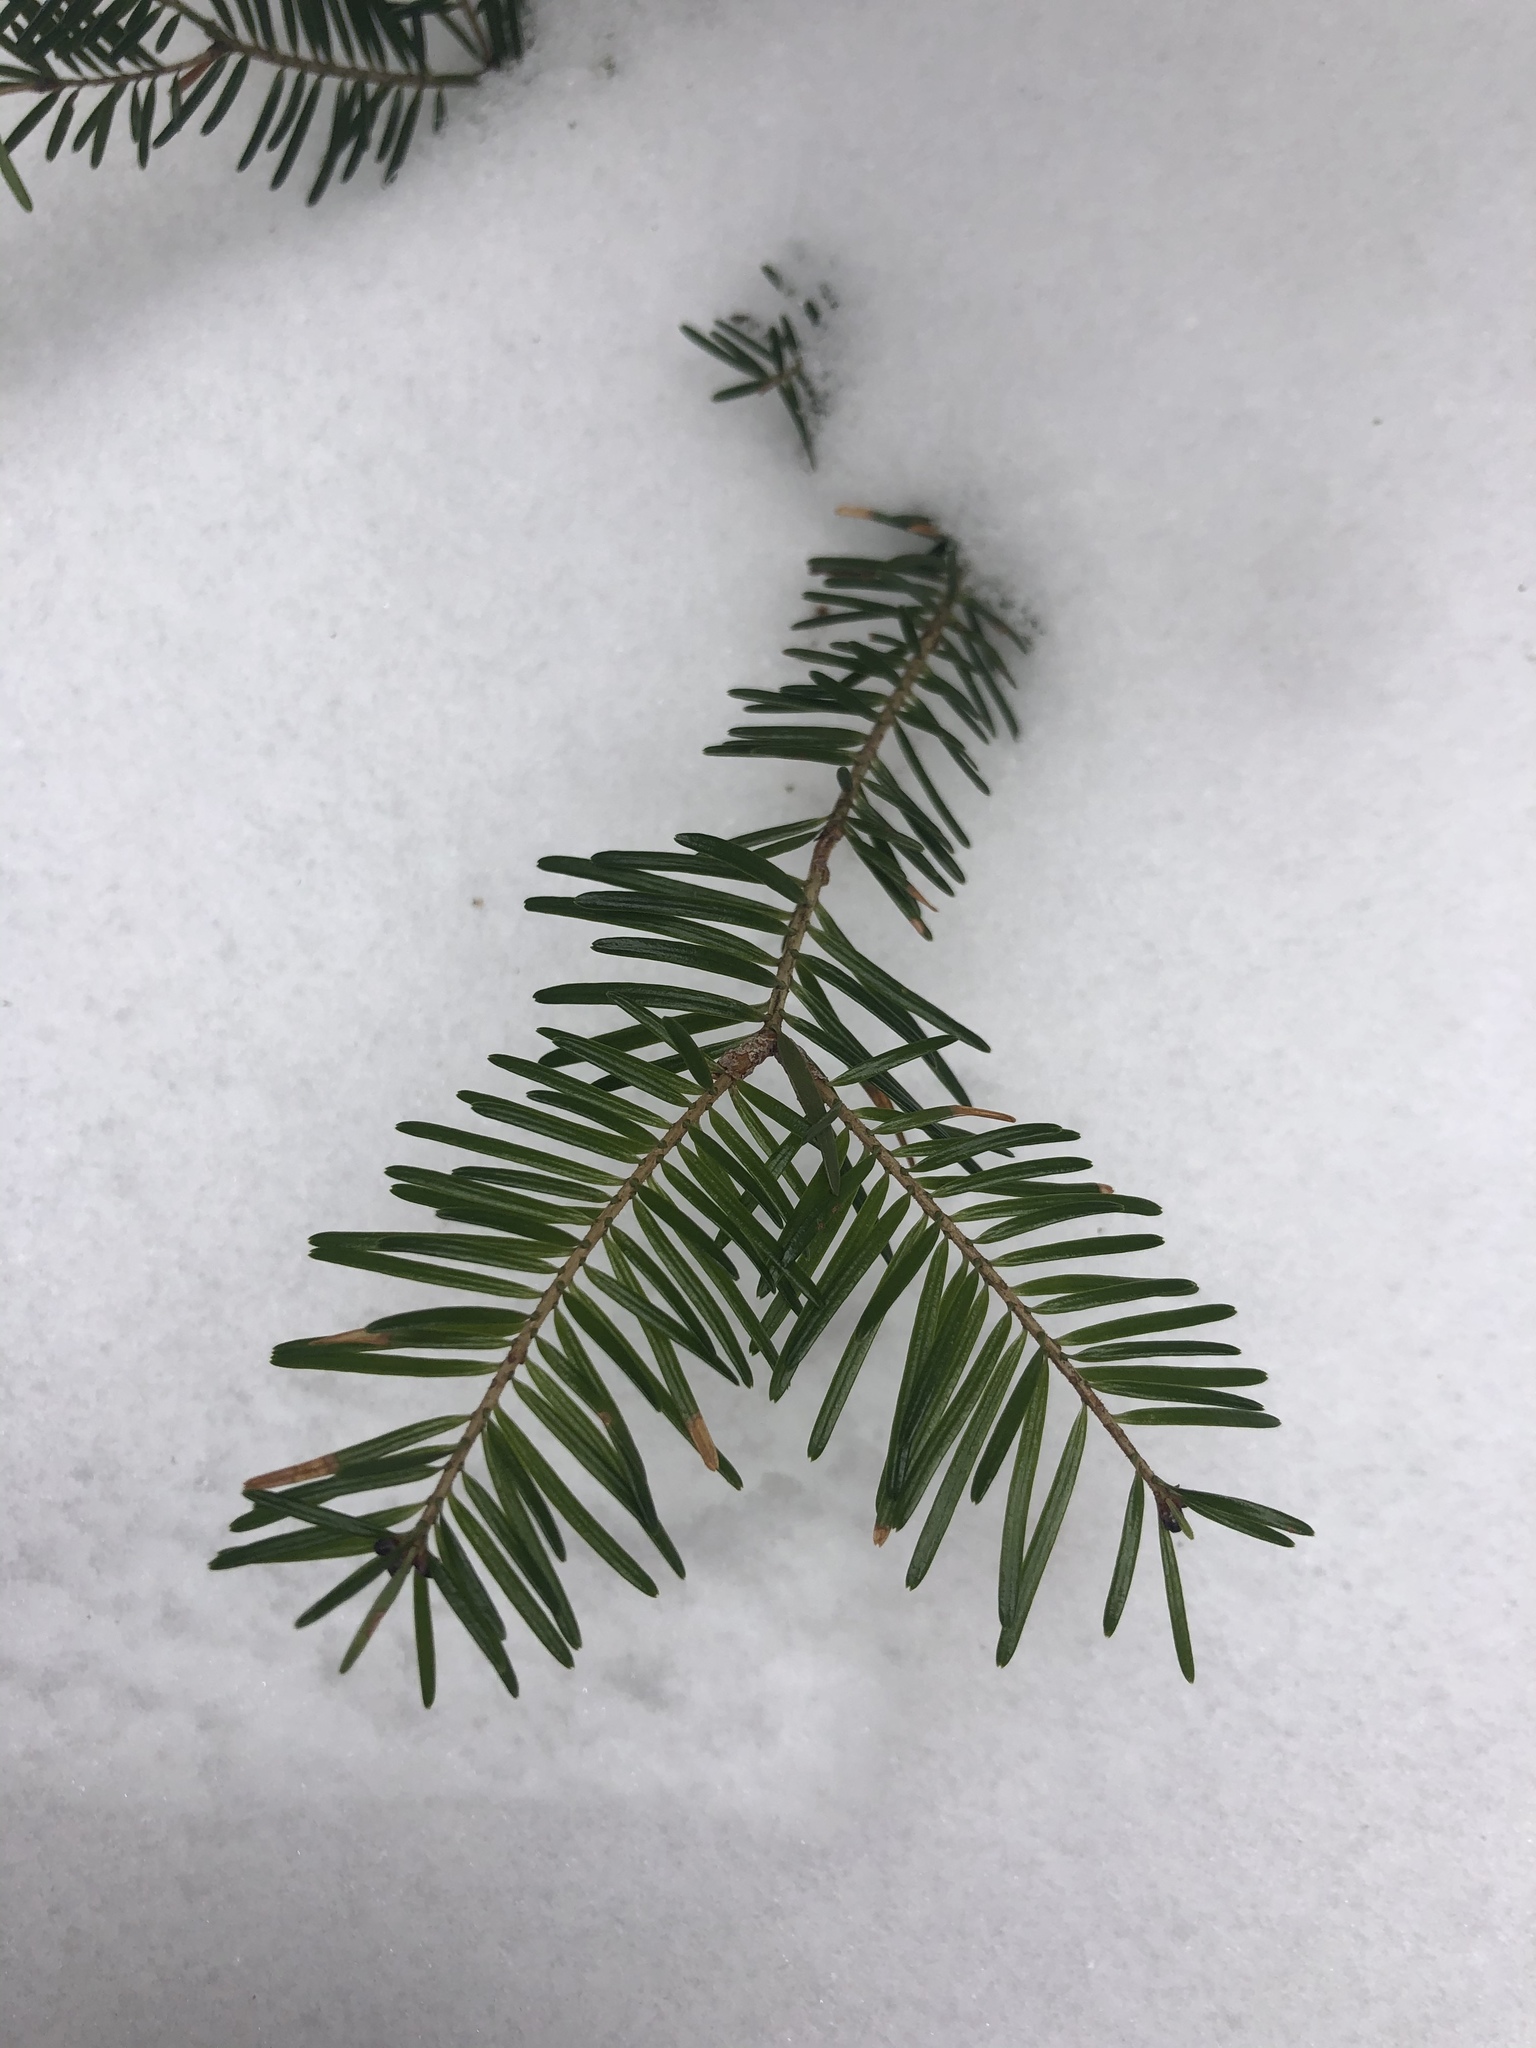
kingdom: Plantae
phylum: Tracheophyta
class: Pinopsida
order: Pinales
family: Pinaceae
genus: Abies
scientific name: Abies balsamea
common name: Balsam fir
